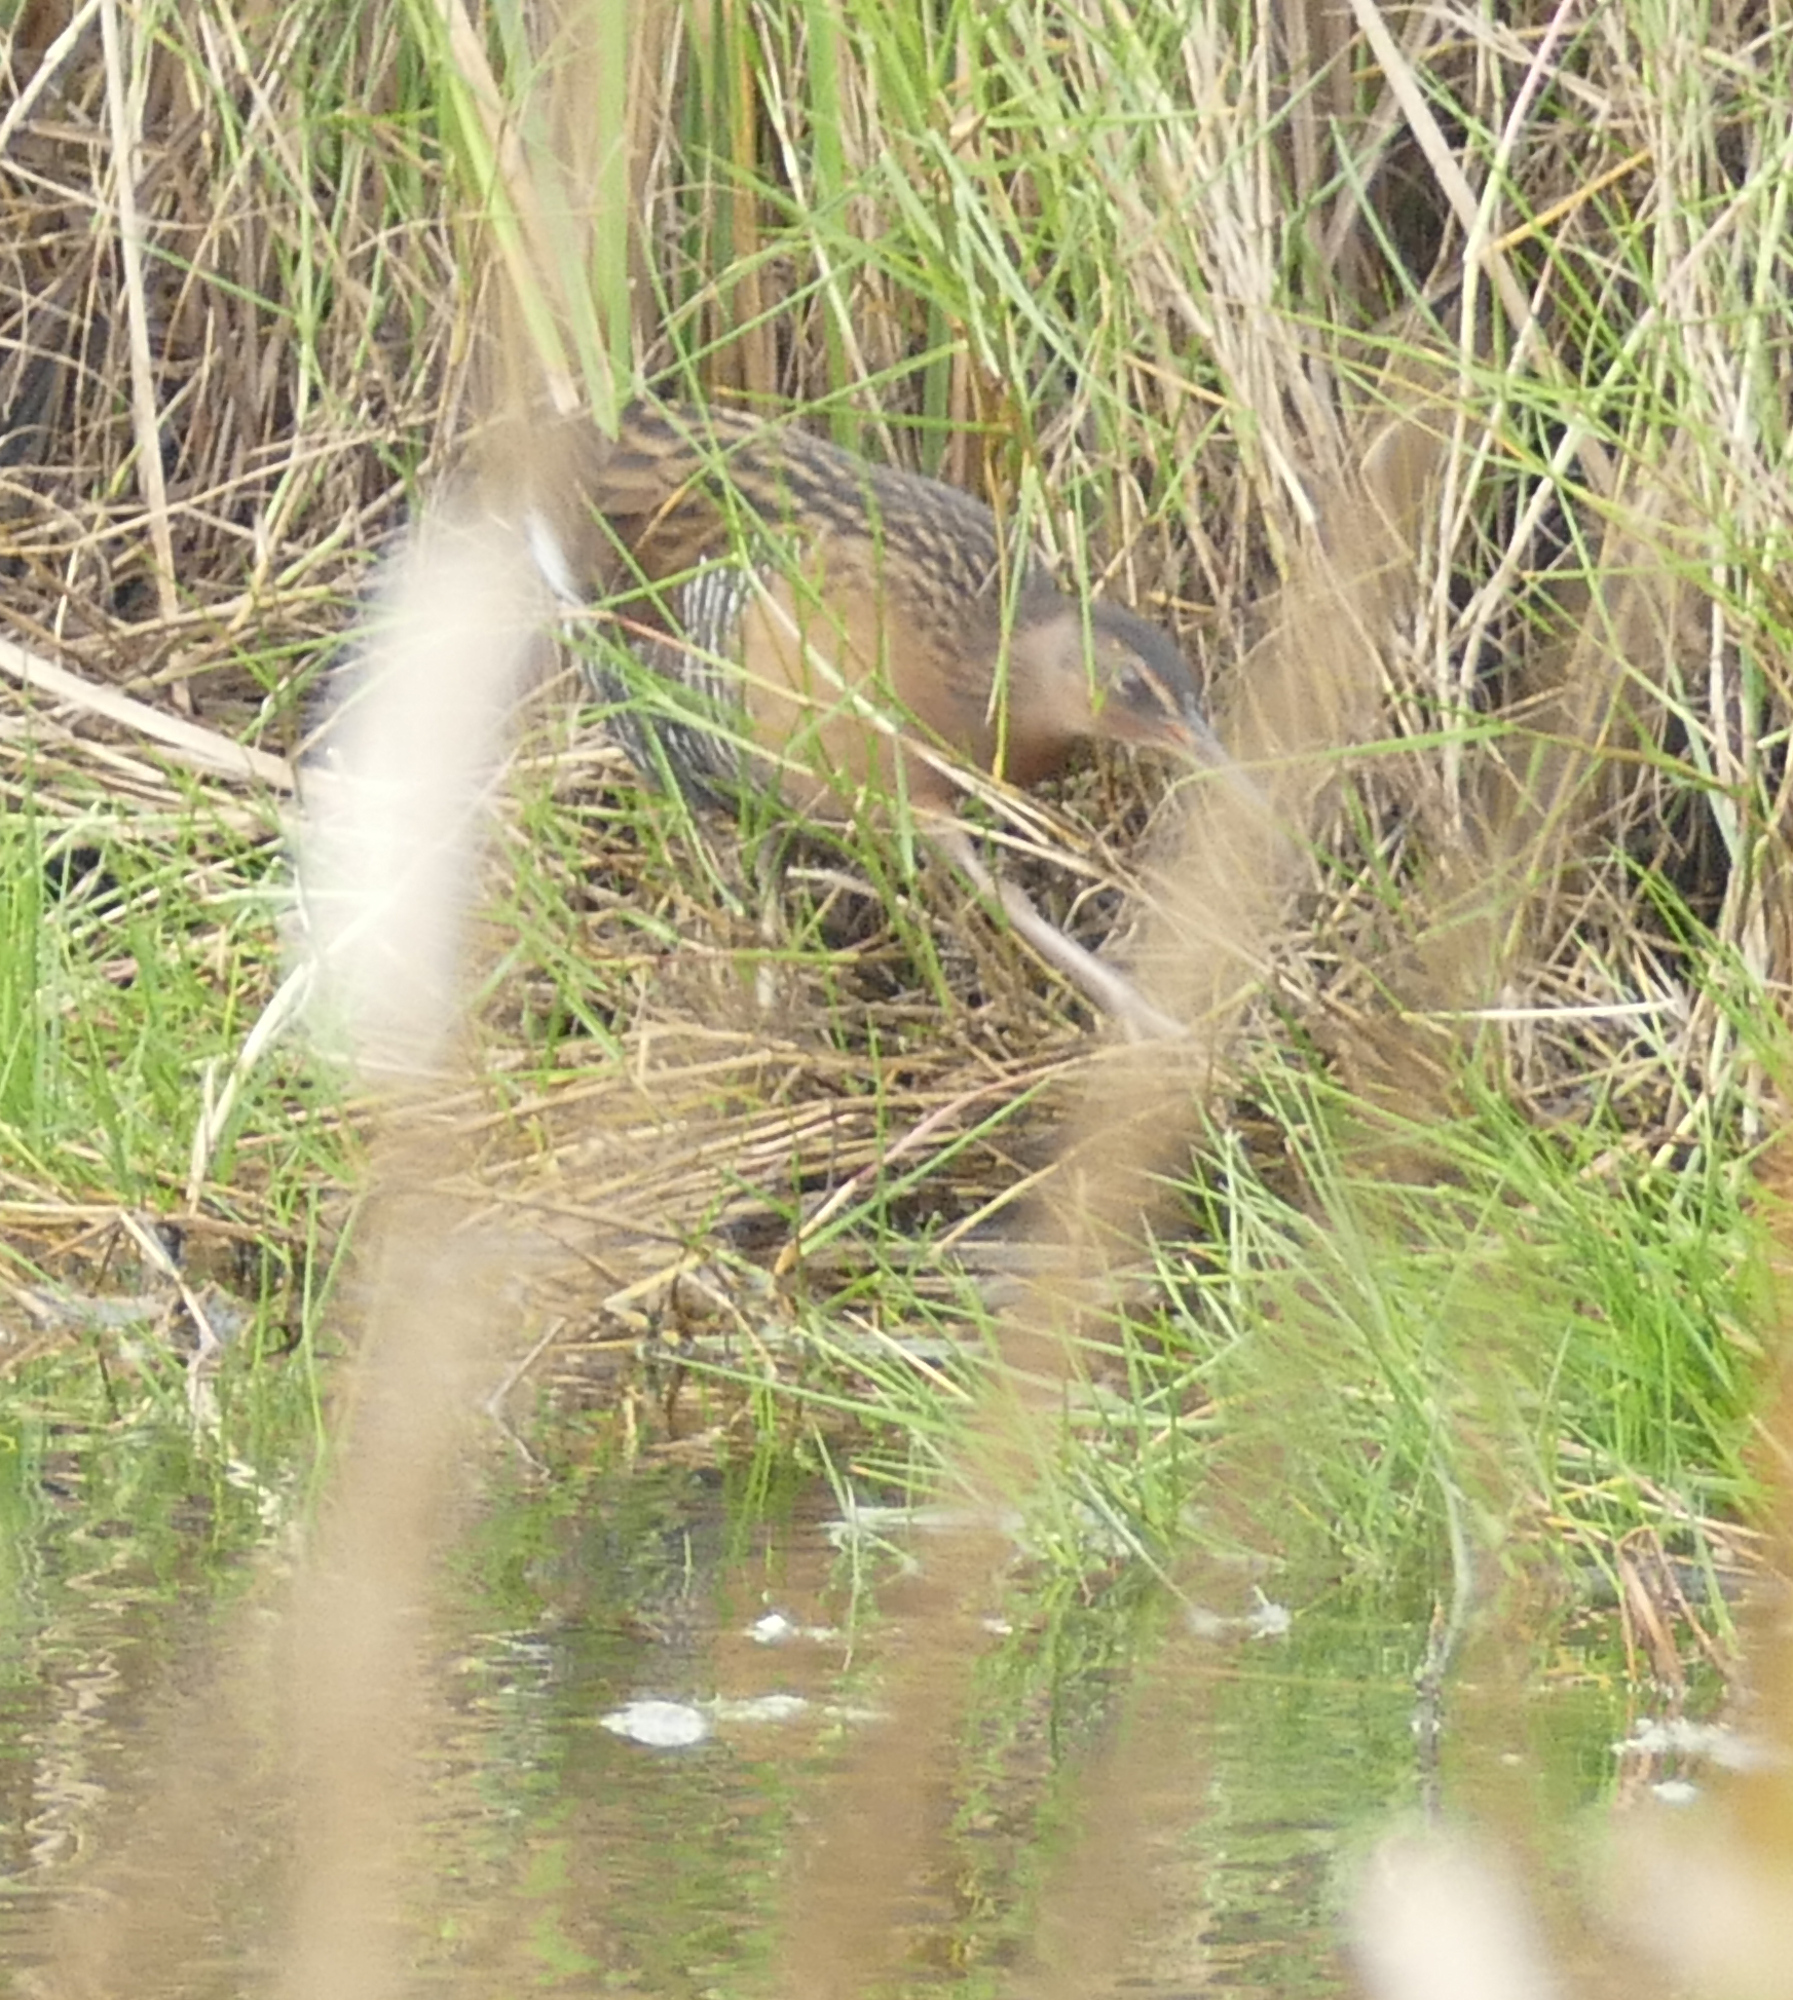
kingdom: Animalia
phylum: Chordata
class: Aves
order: Gruiformes
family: Rallidae
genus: Rallus
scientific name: Rallus elegans
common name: King rail
